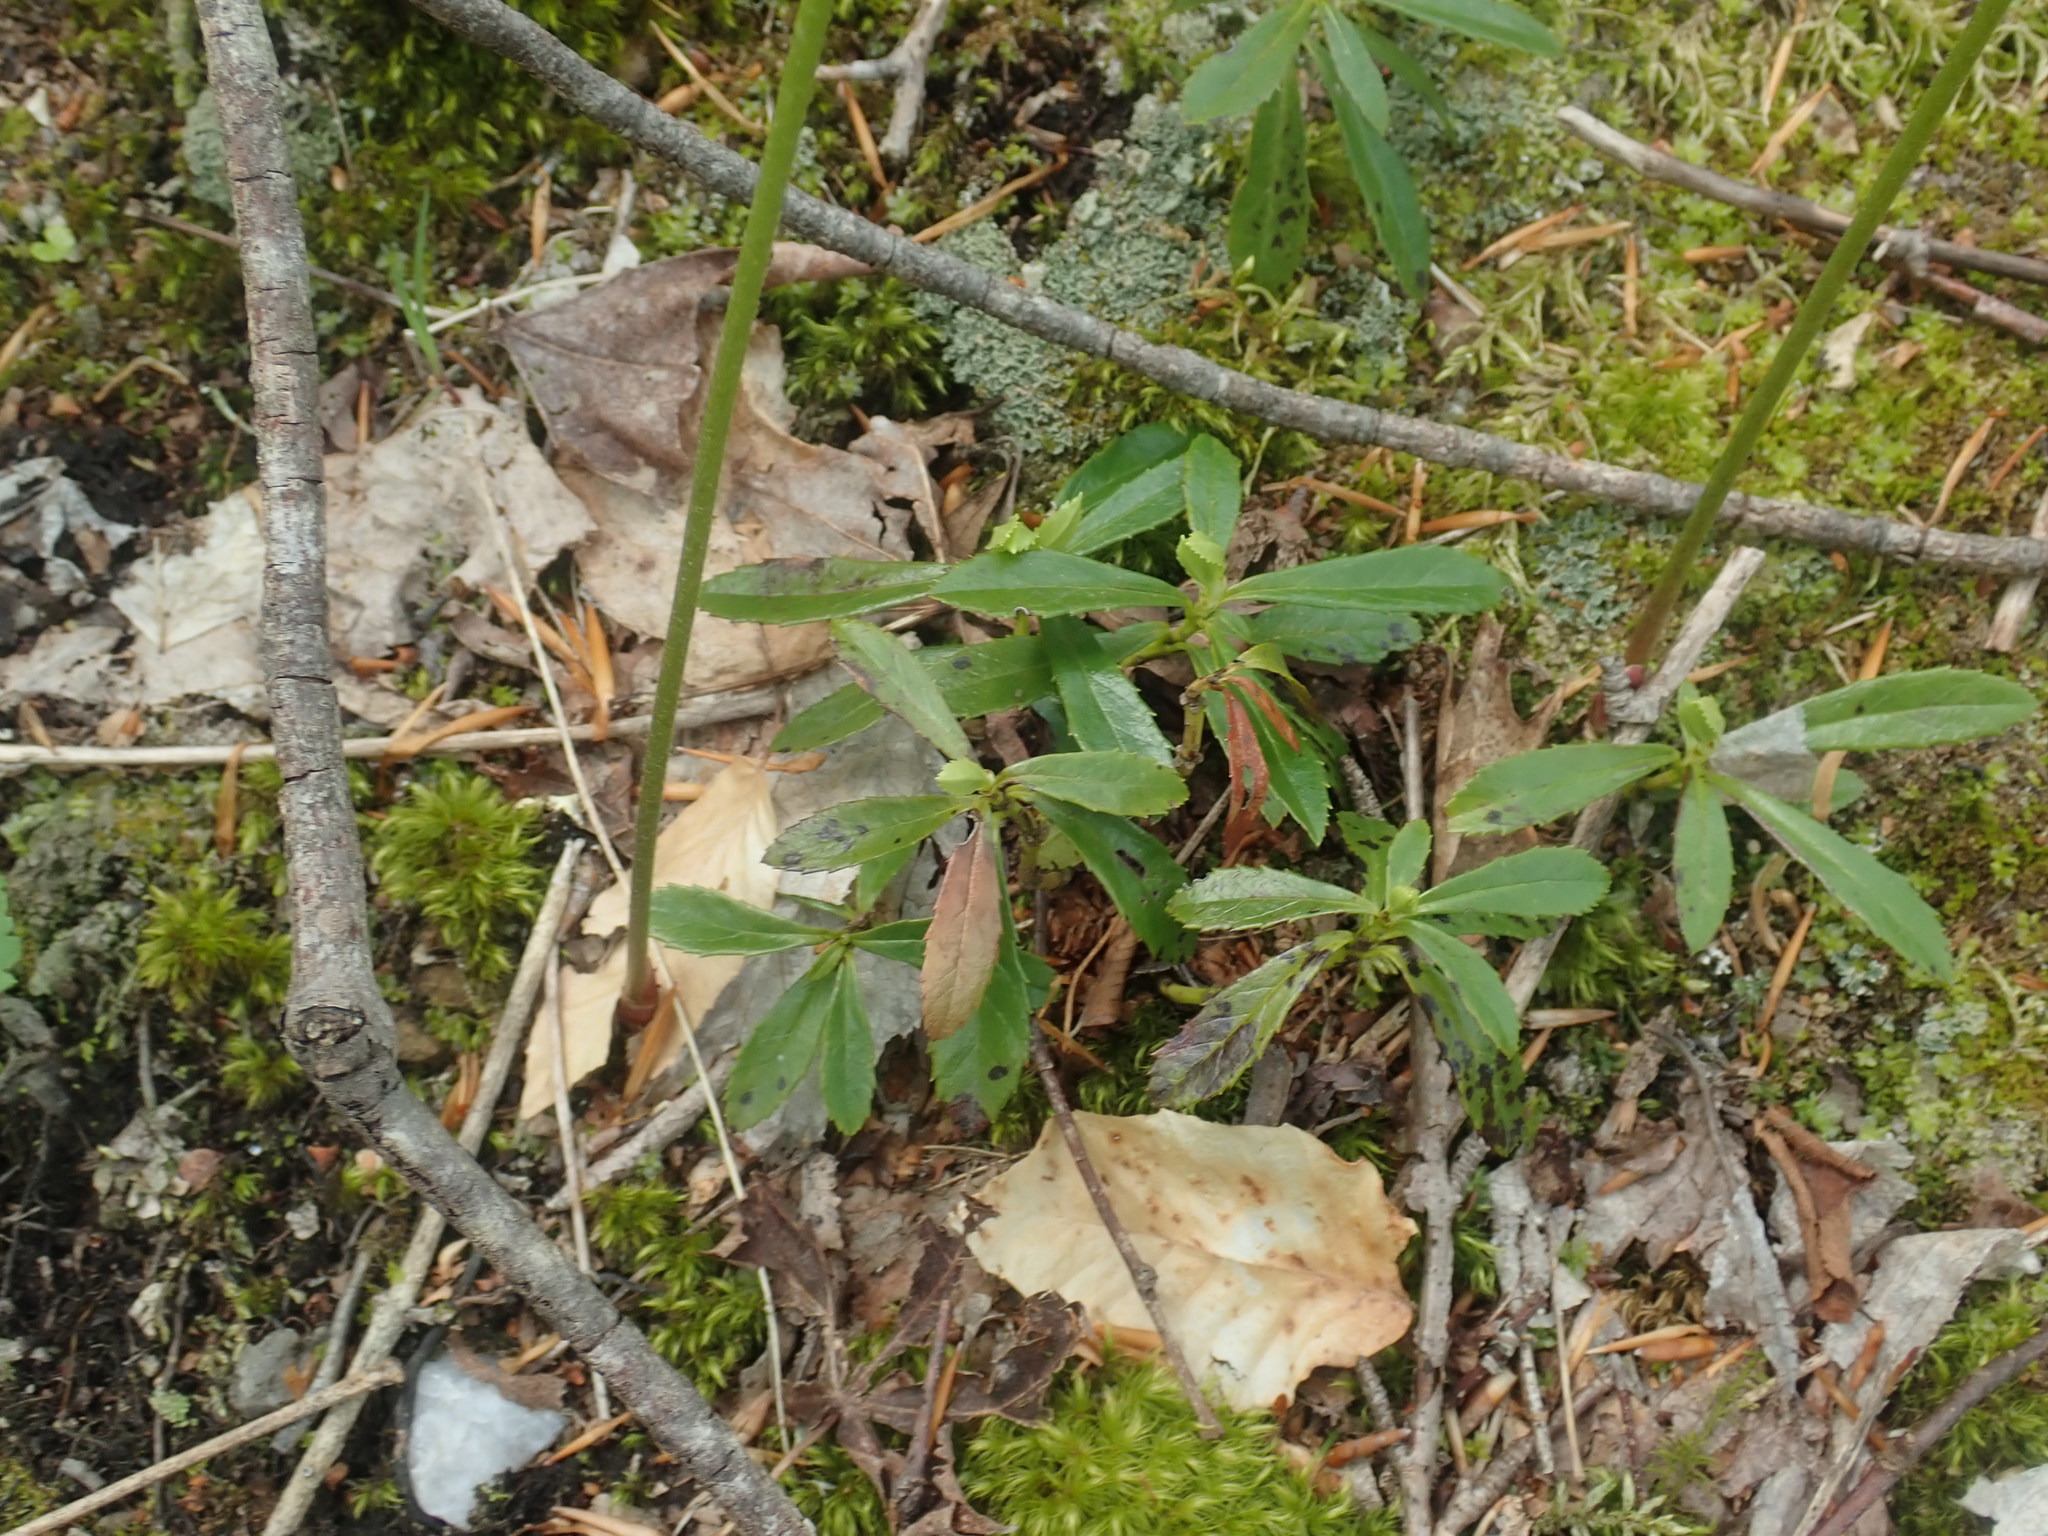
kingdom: Plantae
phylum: Tracheophyta
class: Magnoliopsida
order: Ericales
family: Ericaceae
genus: Chimaphila
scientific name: Chimaphila umbellata
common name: Pipsissewa
